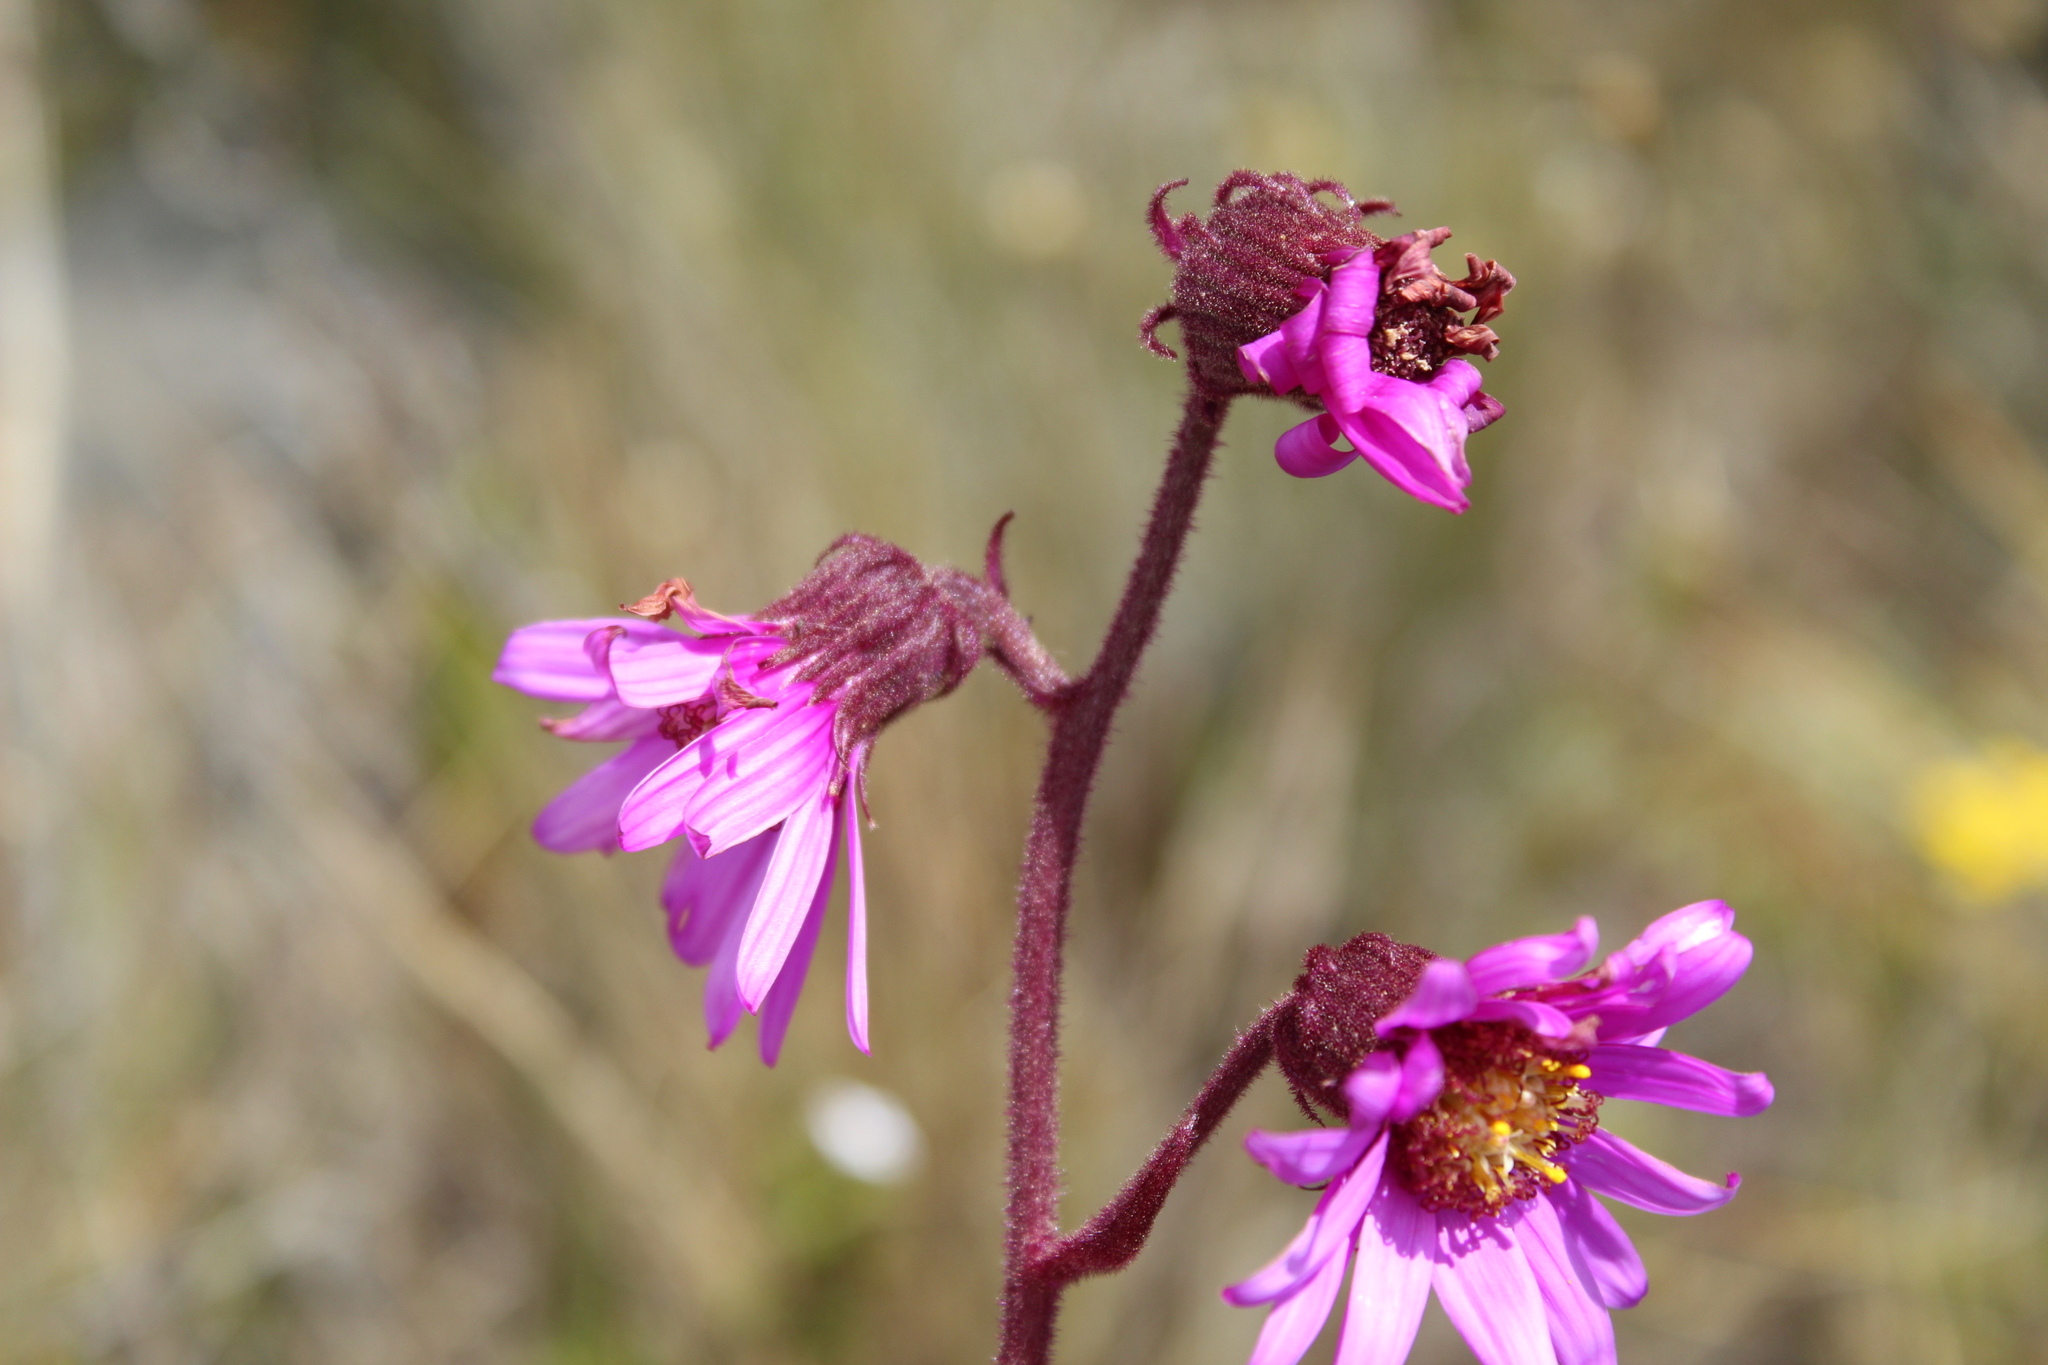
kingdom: Plantae
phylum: Tracheophyta
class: Magnoliopsida
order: Asterales
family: Asteraceae
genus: Senecio
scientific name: Senecio formosus
